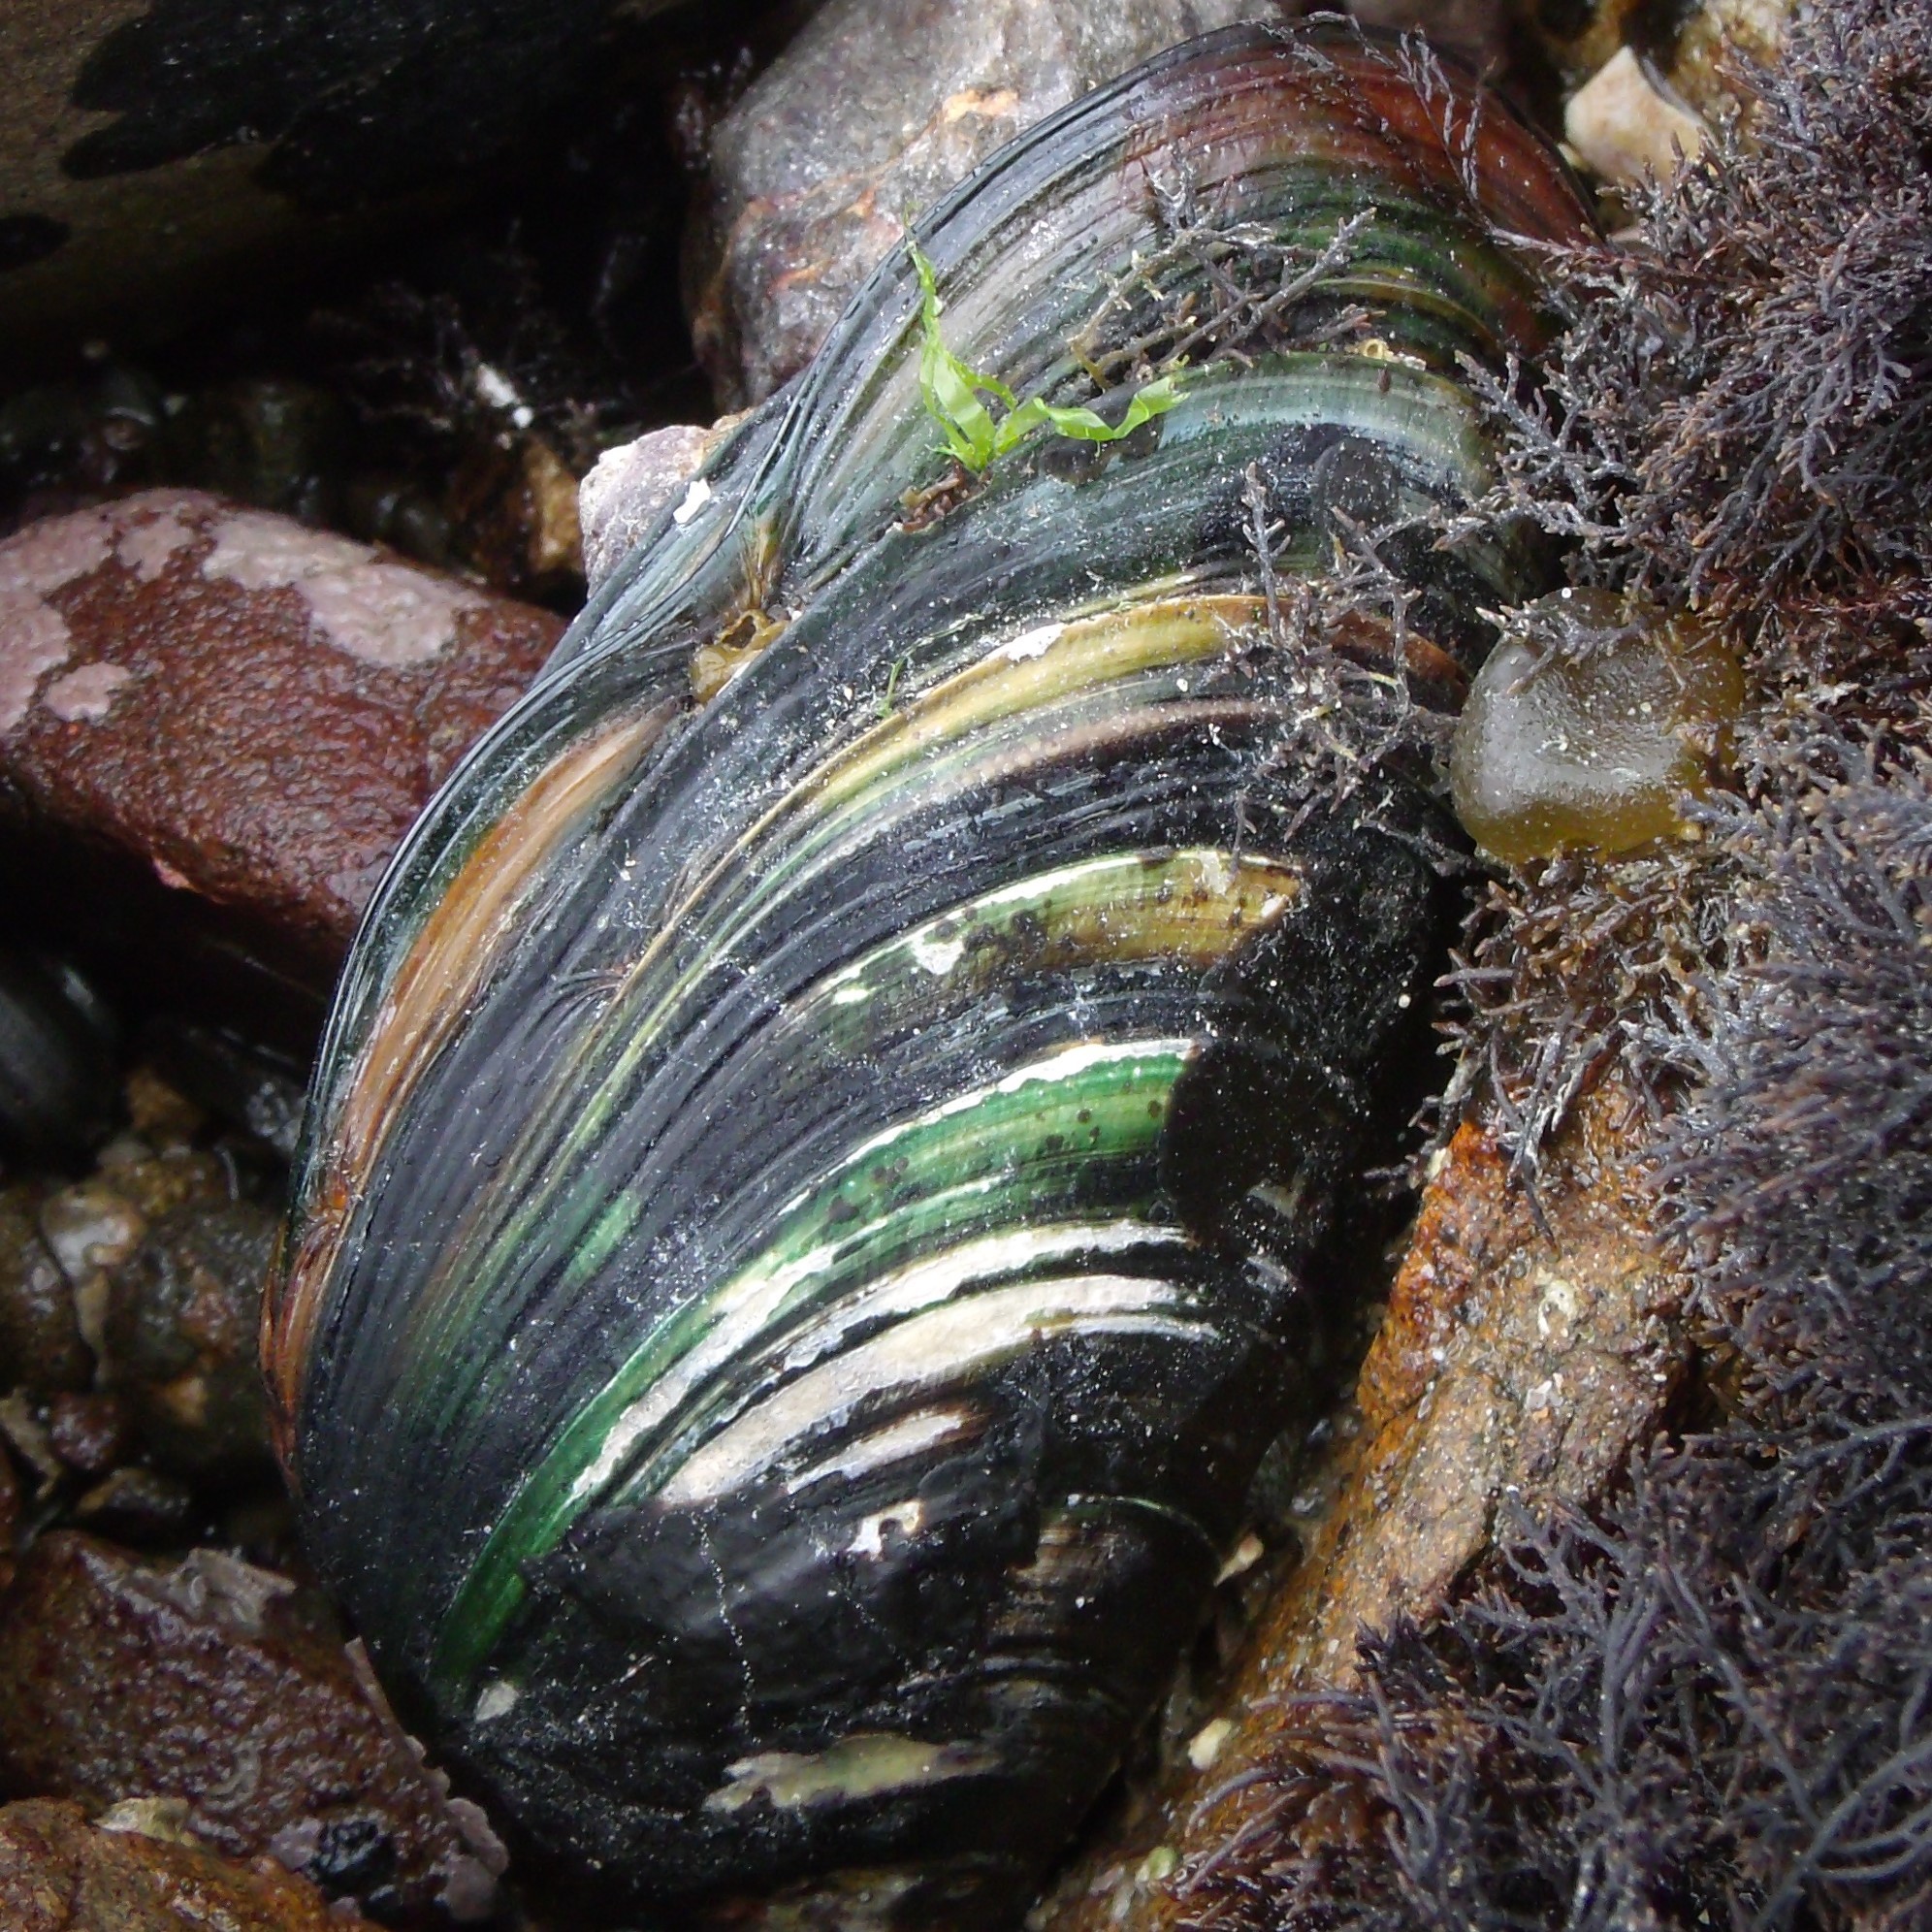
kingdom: Animalia
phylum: Mollusca
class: Bivalvia
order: Mytilida
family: Mytilidae
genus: Perna
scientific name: Perna canaliculus
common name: New zealand greenshelltm
